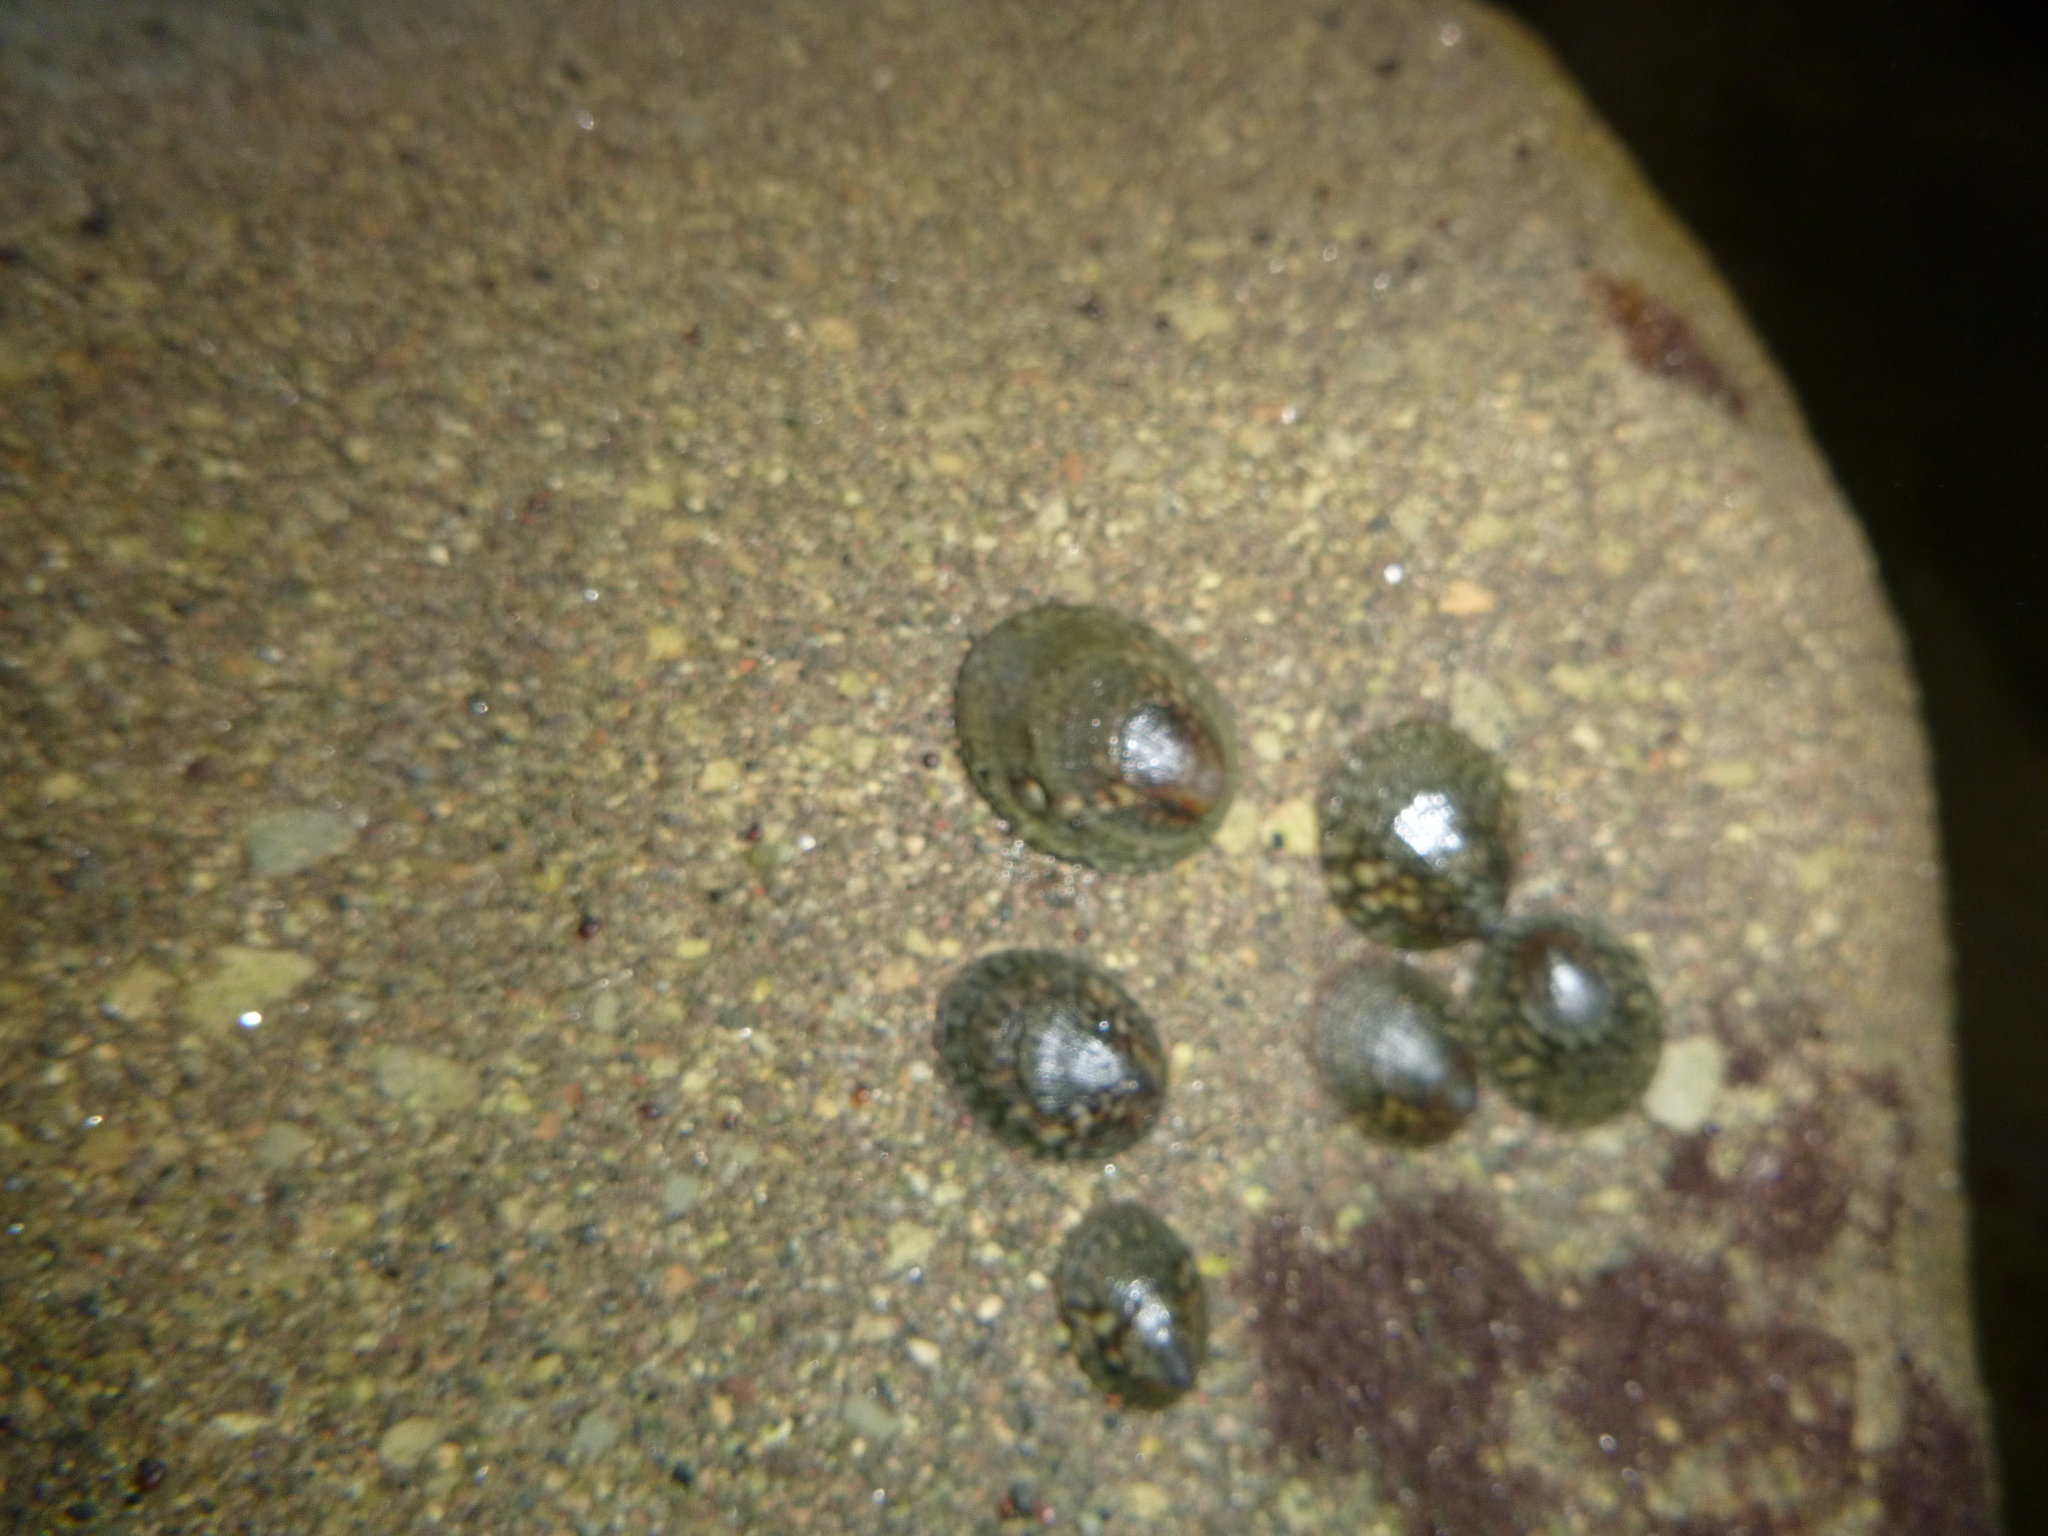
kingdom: Animalia
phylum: Mollusca
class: Gastropoda
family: Lottiidae
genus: Notoacmea
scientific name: Notoacmea pileopsis
